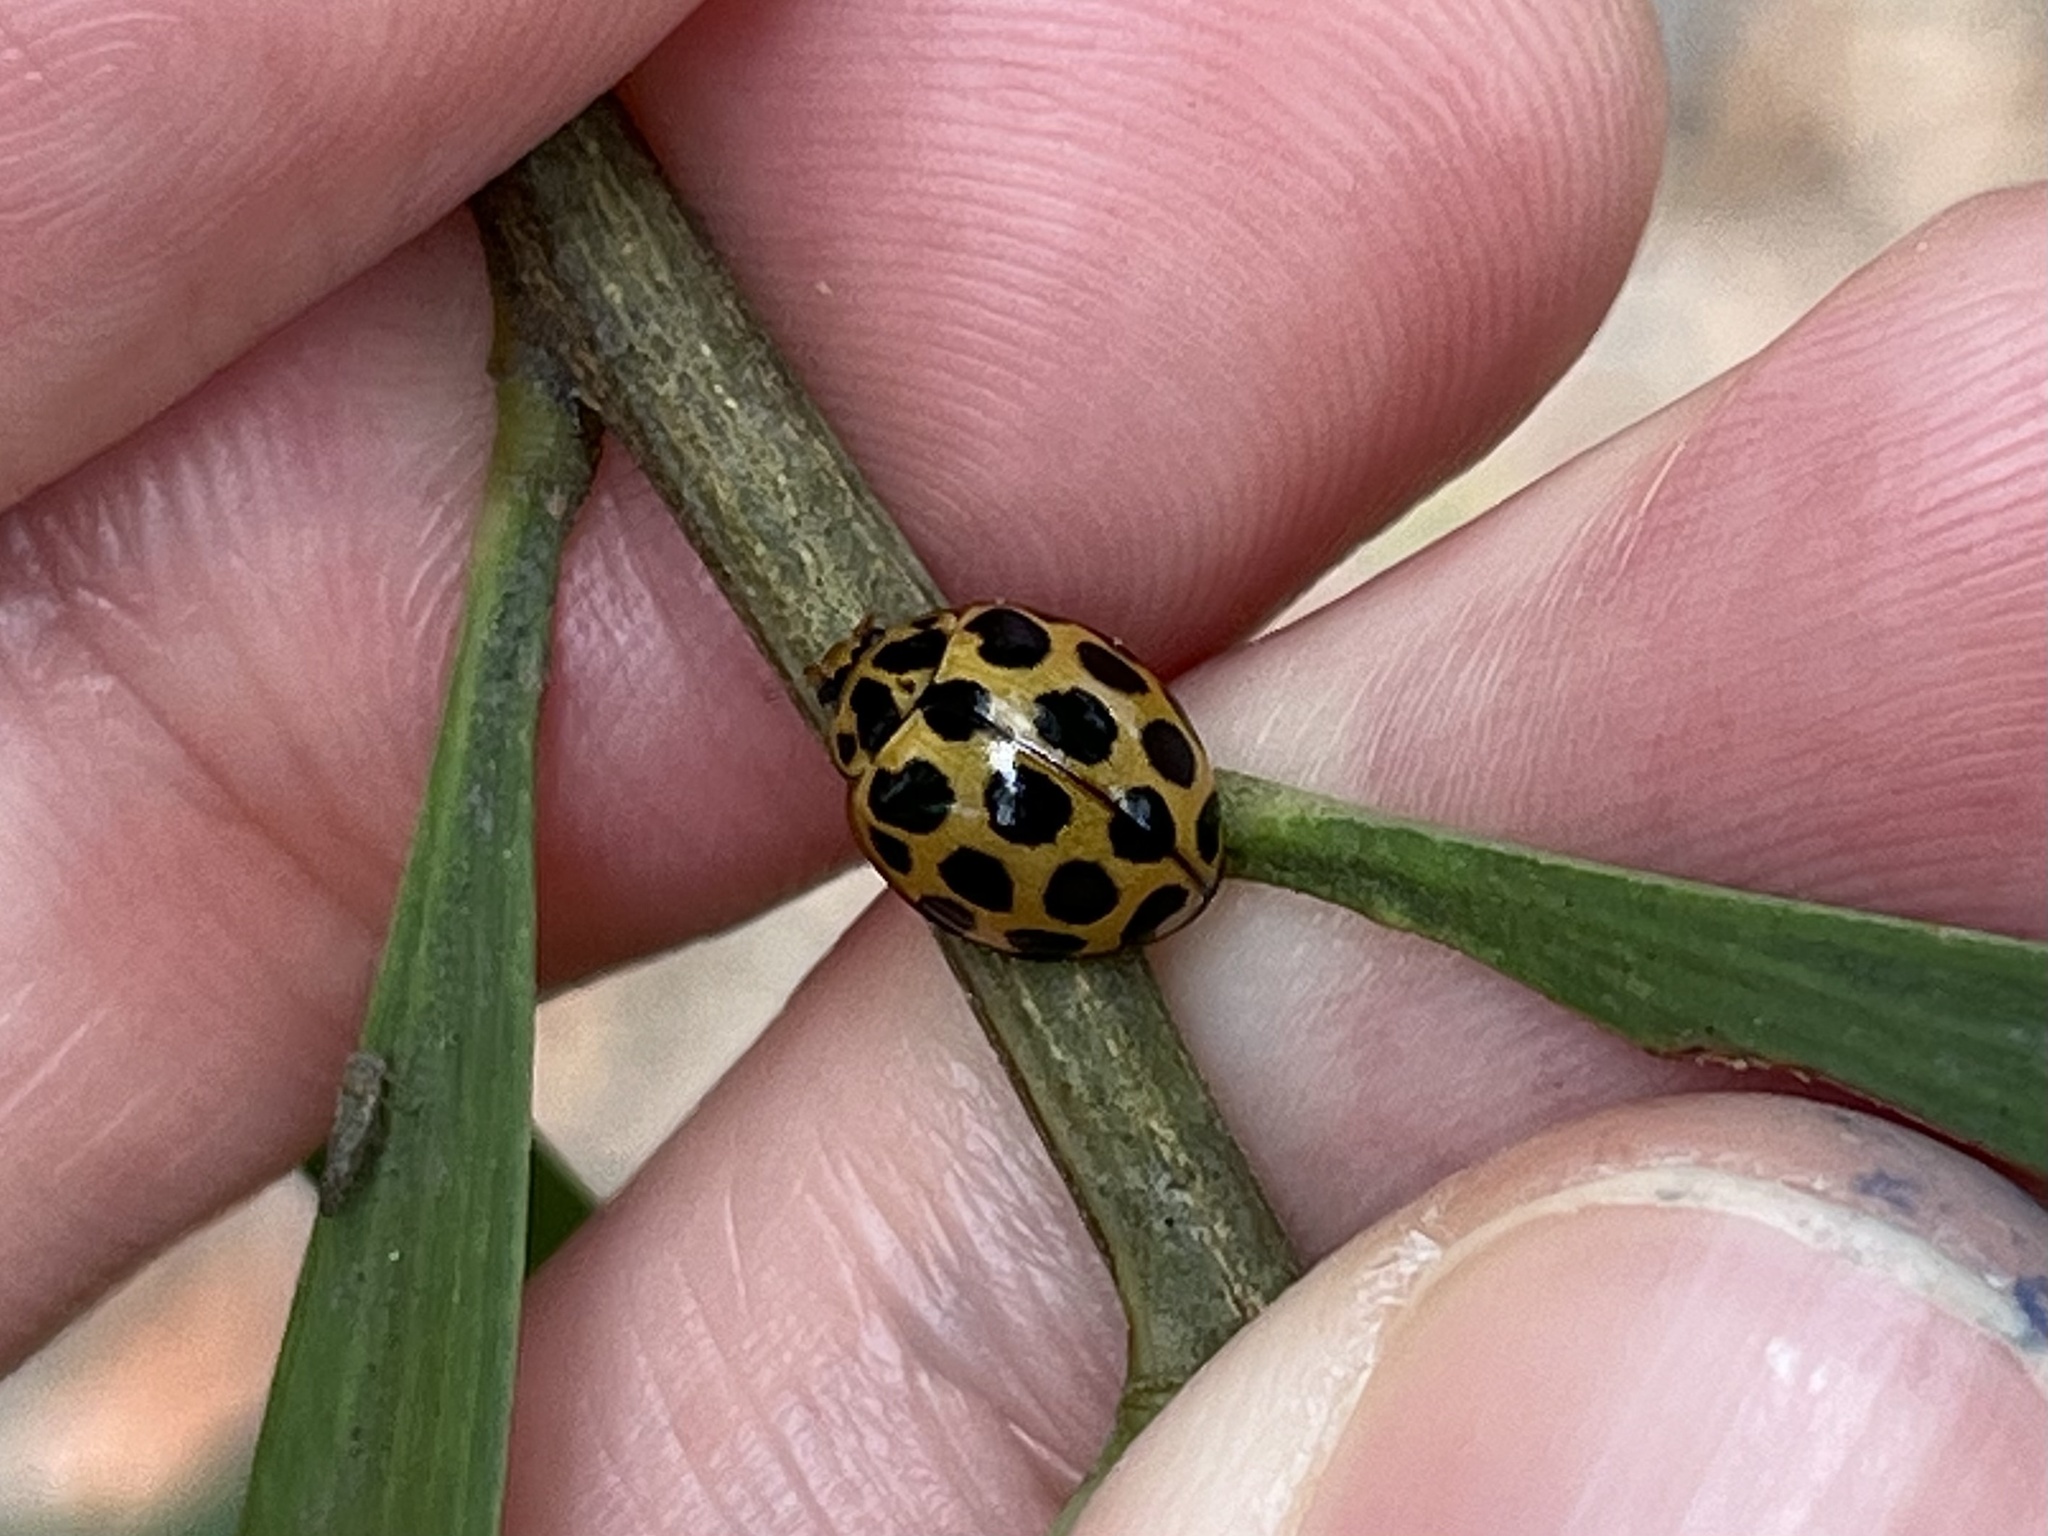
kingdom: Animalia
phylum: Arthropoda
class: Insecta
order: Coleoptera
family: Coccinellidae
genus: Harmonia
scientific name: Harmonia conformis
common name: Common spotted ladybird beetle
